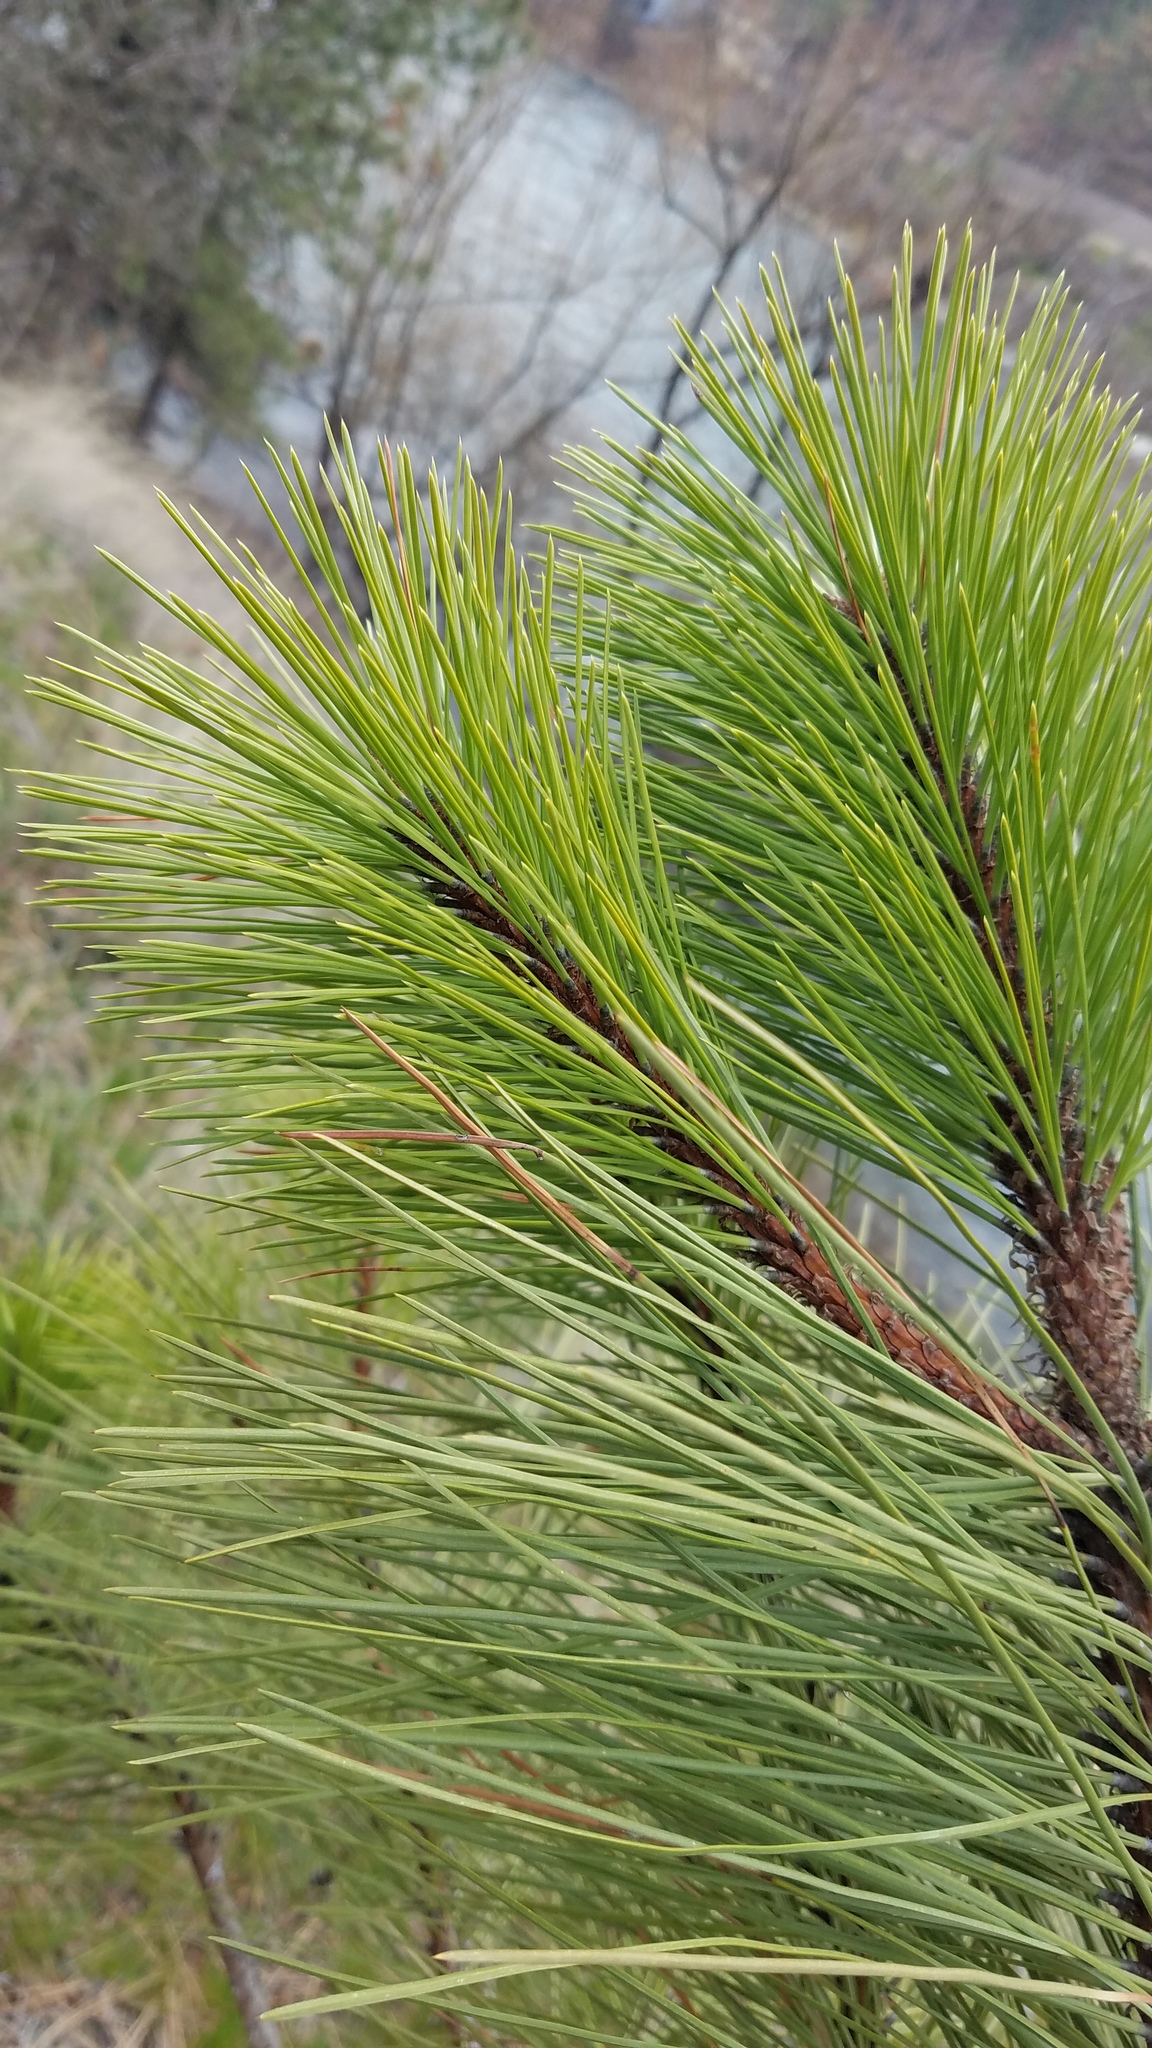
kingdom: Plantae
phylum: Tracheophyta
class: Pinopsida
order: Pinales
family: Pinaceae
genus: Pinus
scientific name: Pinus ponderosa
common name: Western yellow-pine
